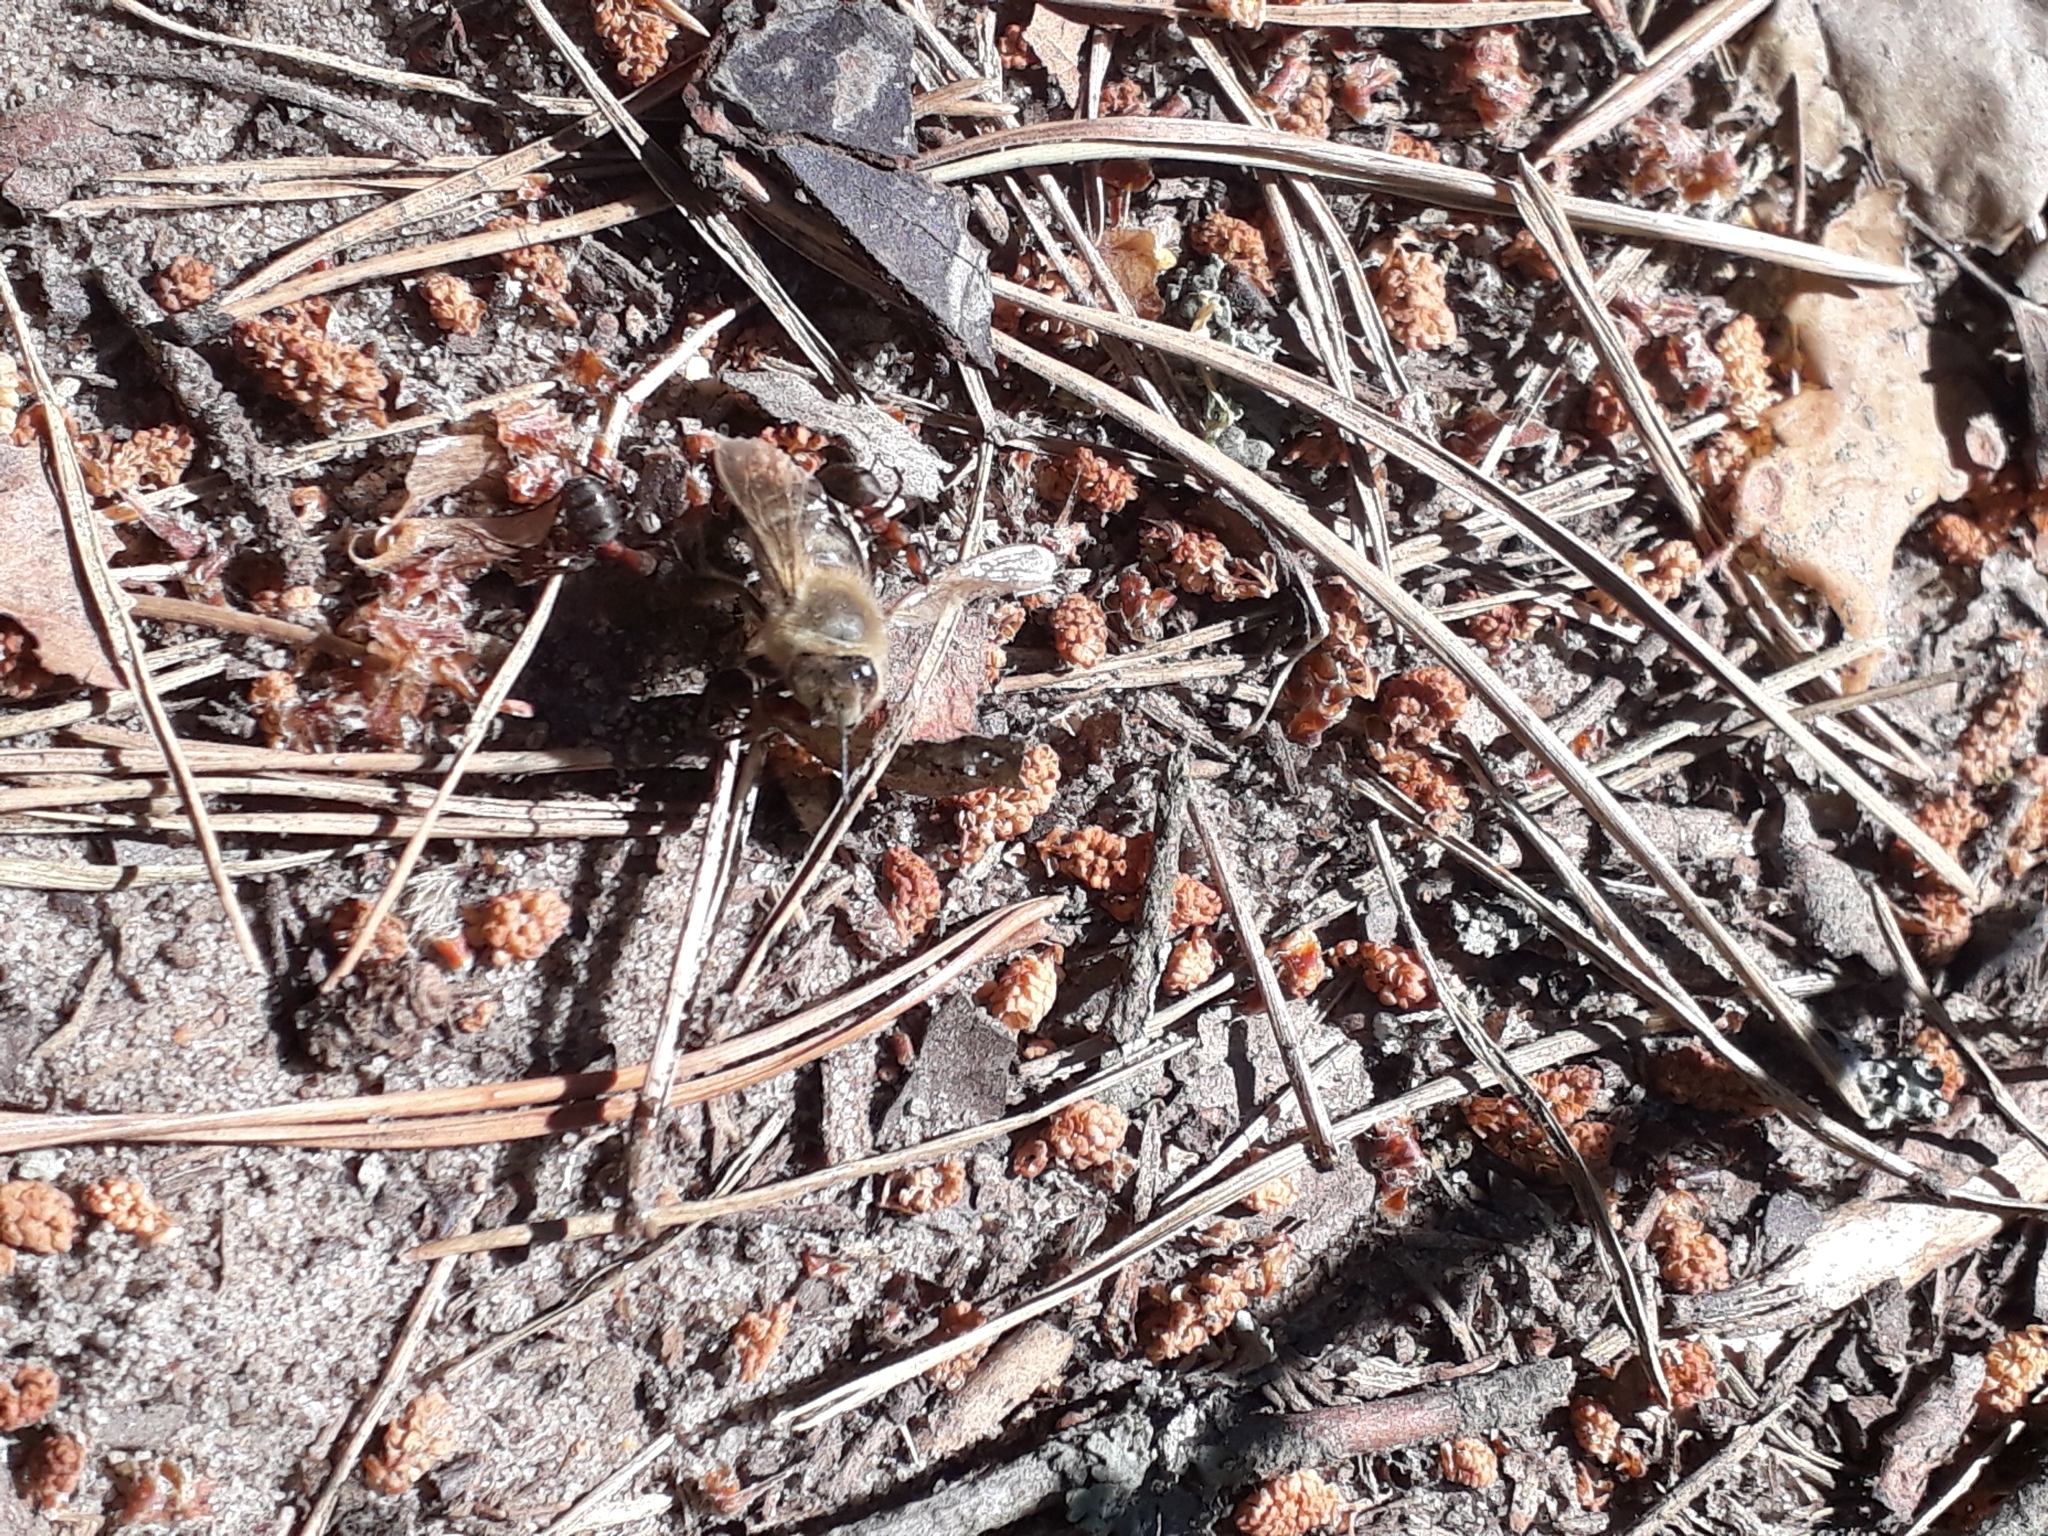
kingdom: Animalia
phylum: Arthropoda
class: Insecta
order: Hymenoptera
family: Apidae
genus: Apis
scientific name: Apis mellifera
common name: Honey bee
